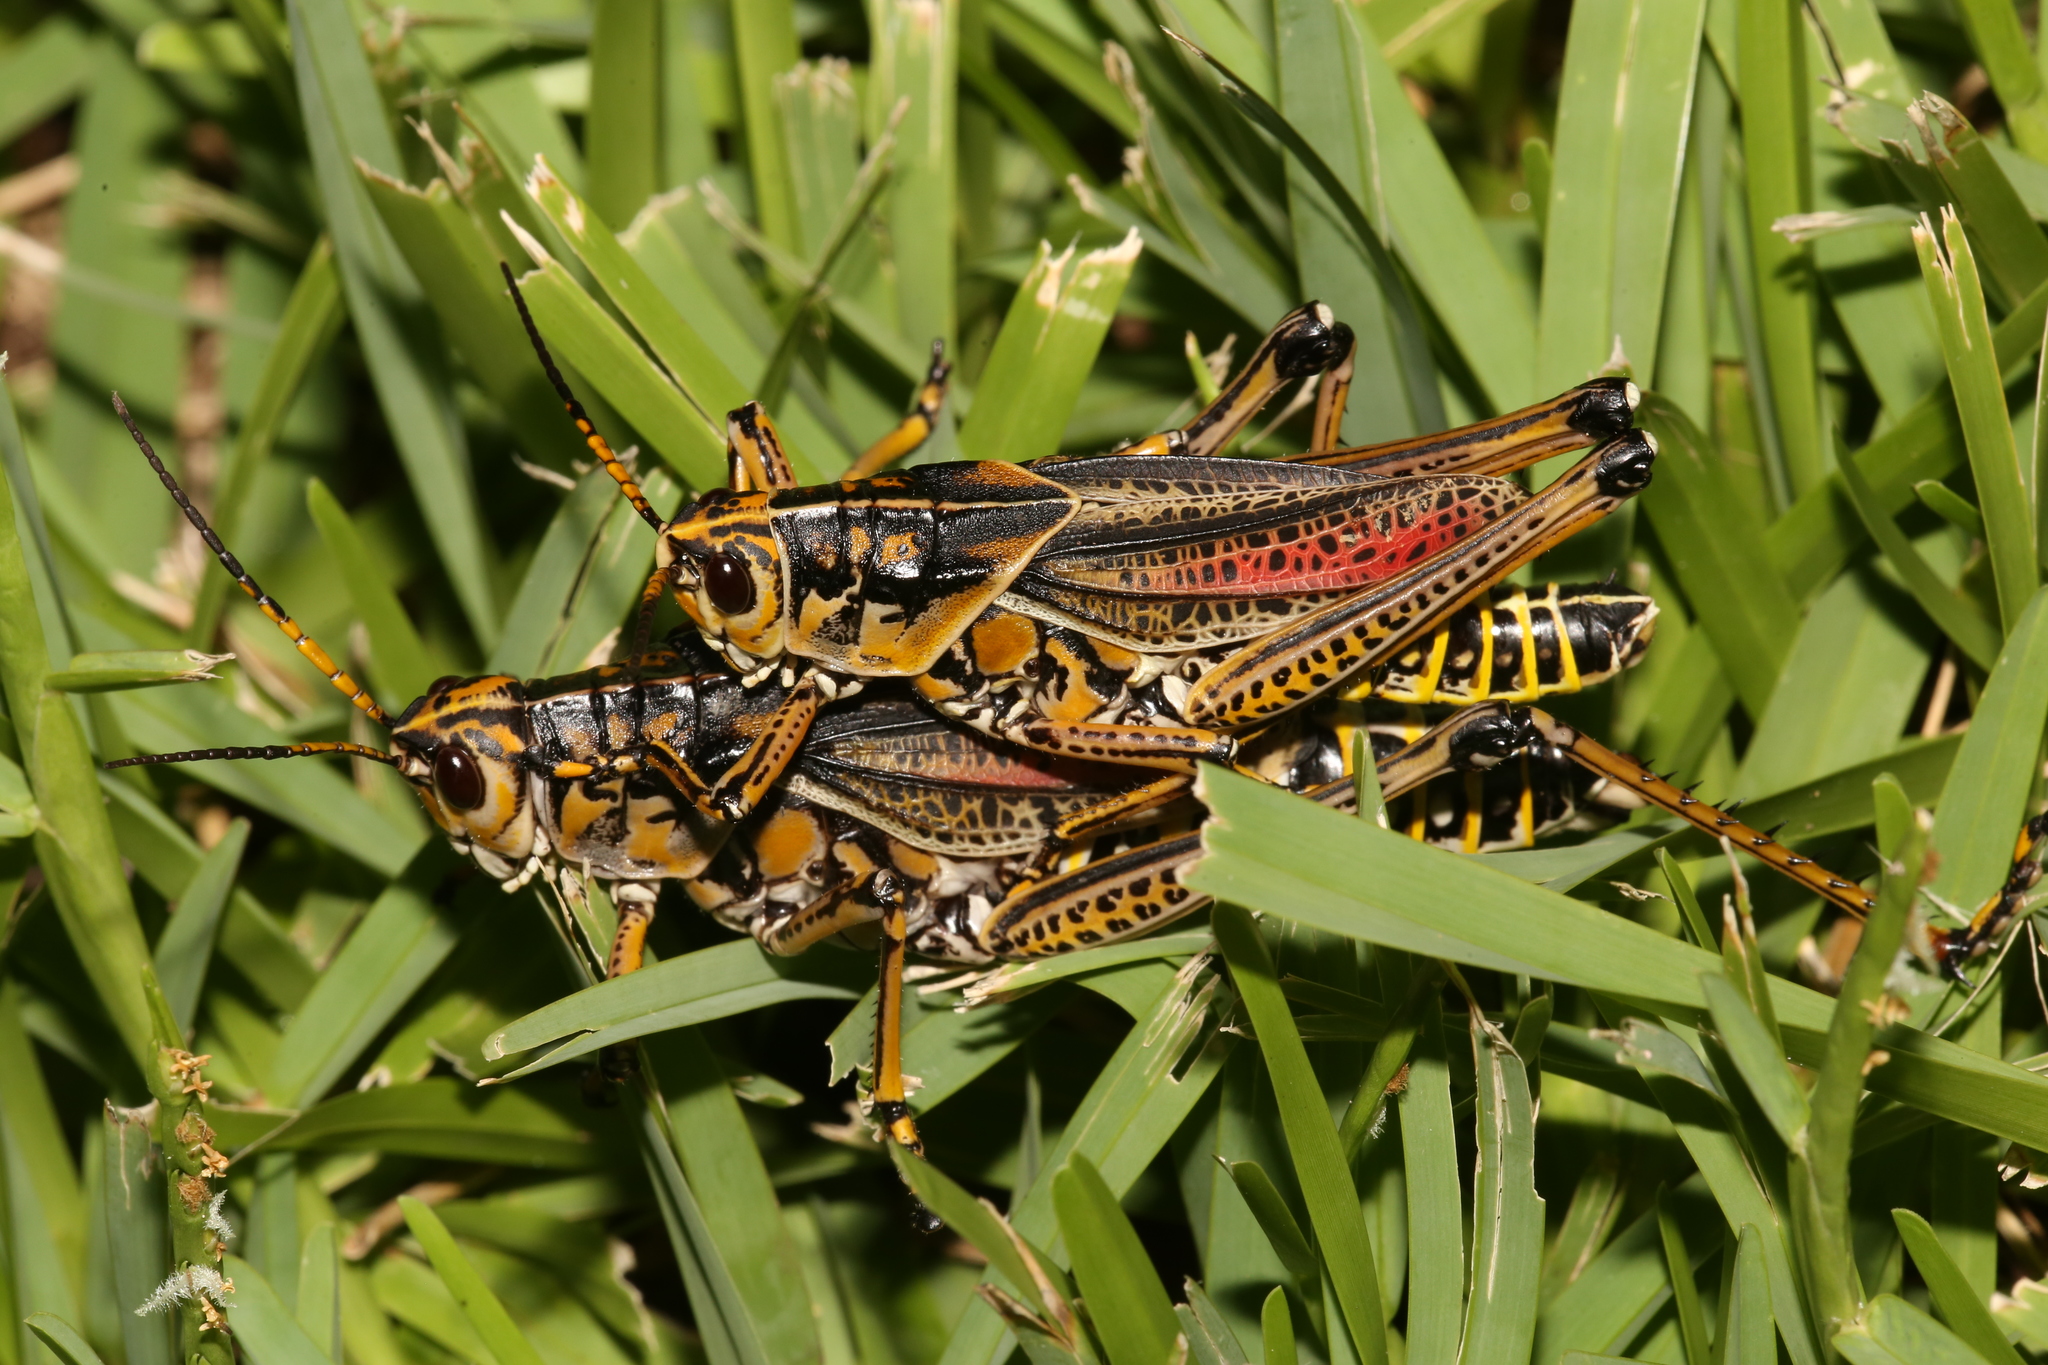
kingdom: Animalia
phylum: Arthropoda
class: Insecta
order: Orthoptera
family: Romaleidae
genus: Romalea
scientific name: Romalea microptera
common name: Eastern lubber grasshopper
